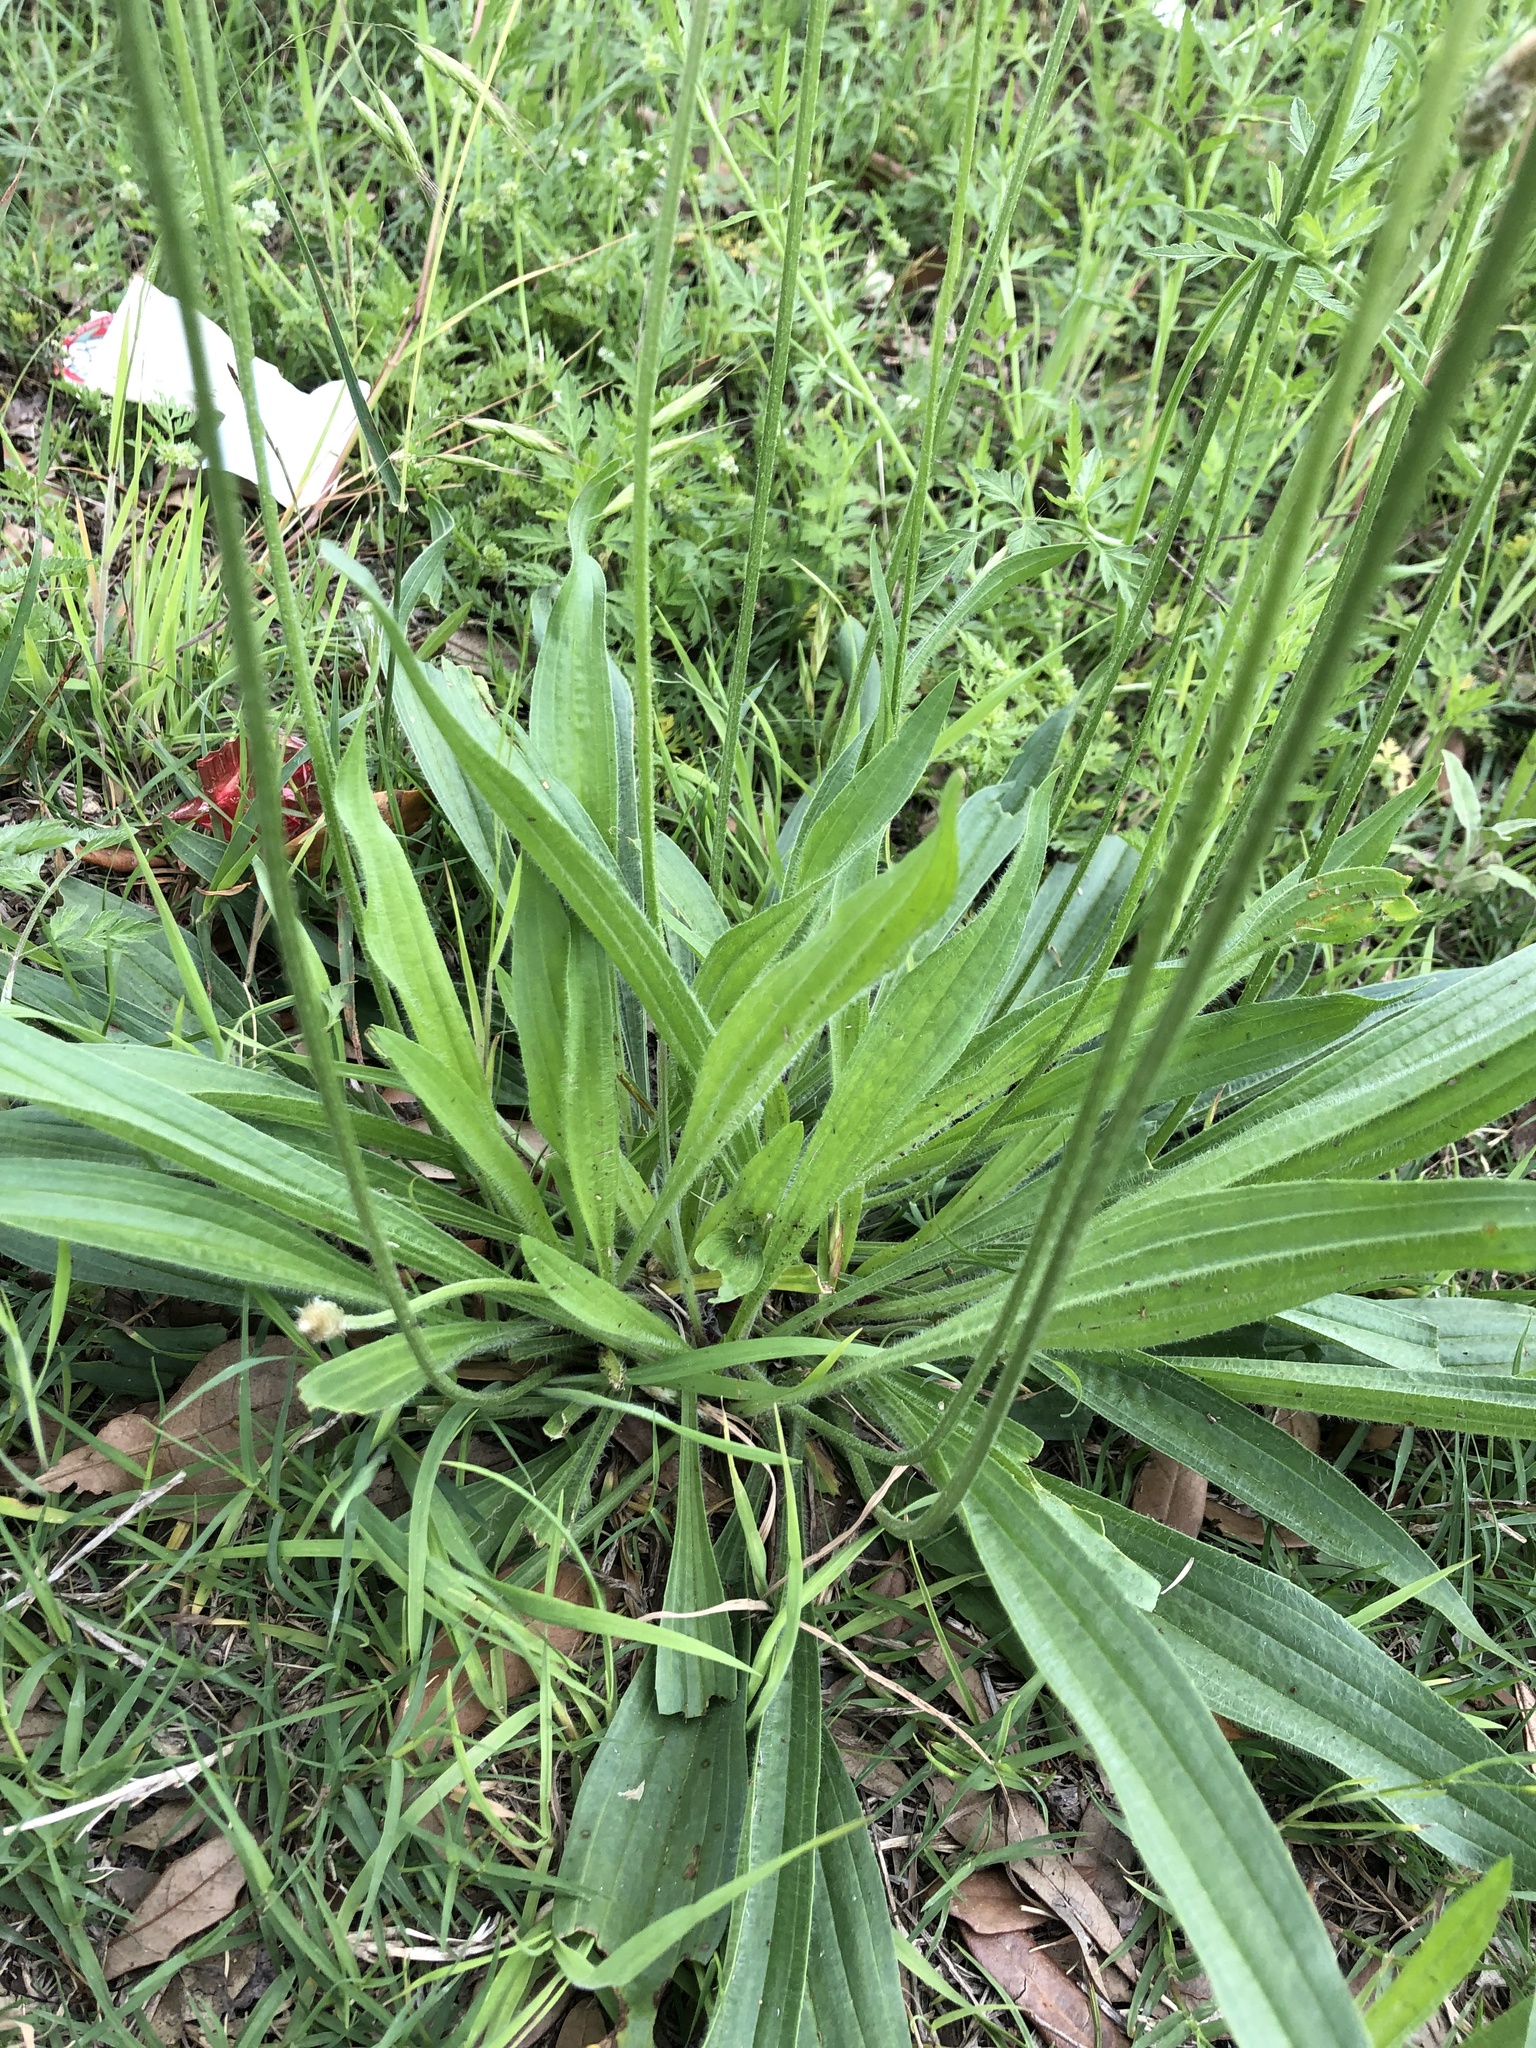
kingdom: Plantae
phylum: Tracheophyta
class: Magnoliopsida
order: Lamiales
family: Plantaginaceae
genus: Plantago
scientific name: Plantago lanceolata
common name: Ribwort plantain
